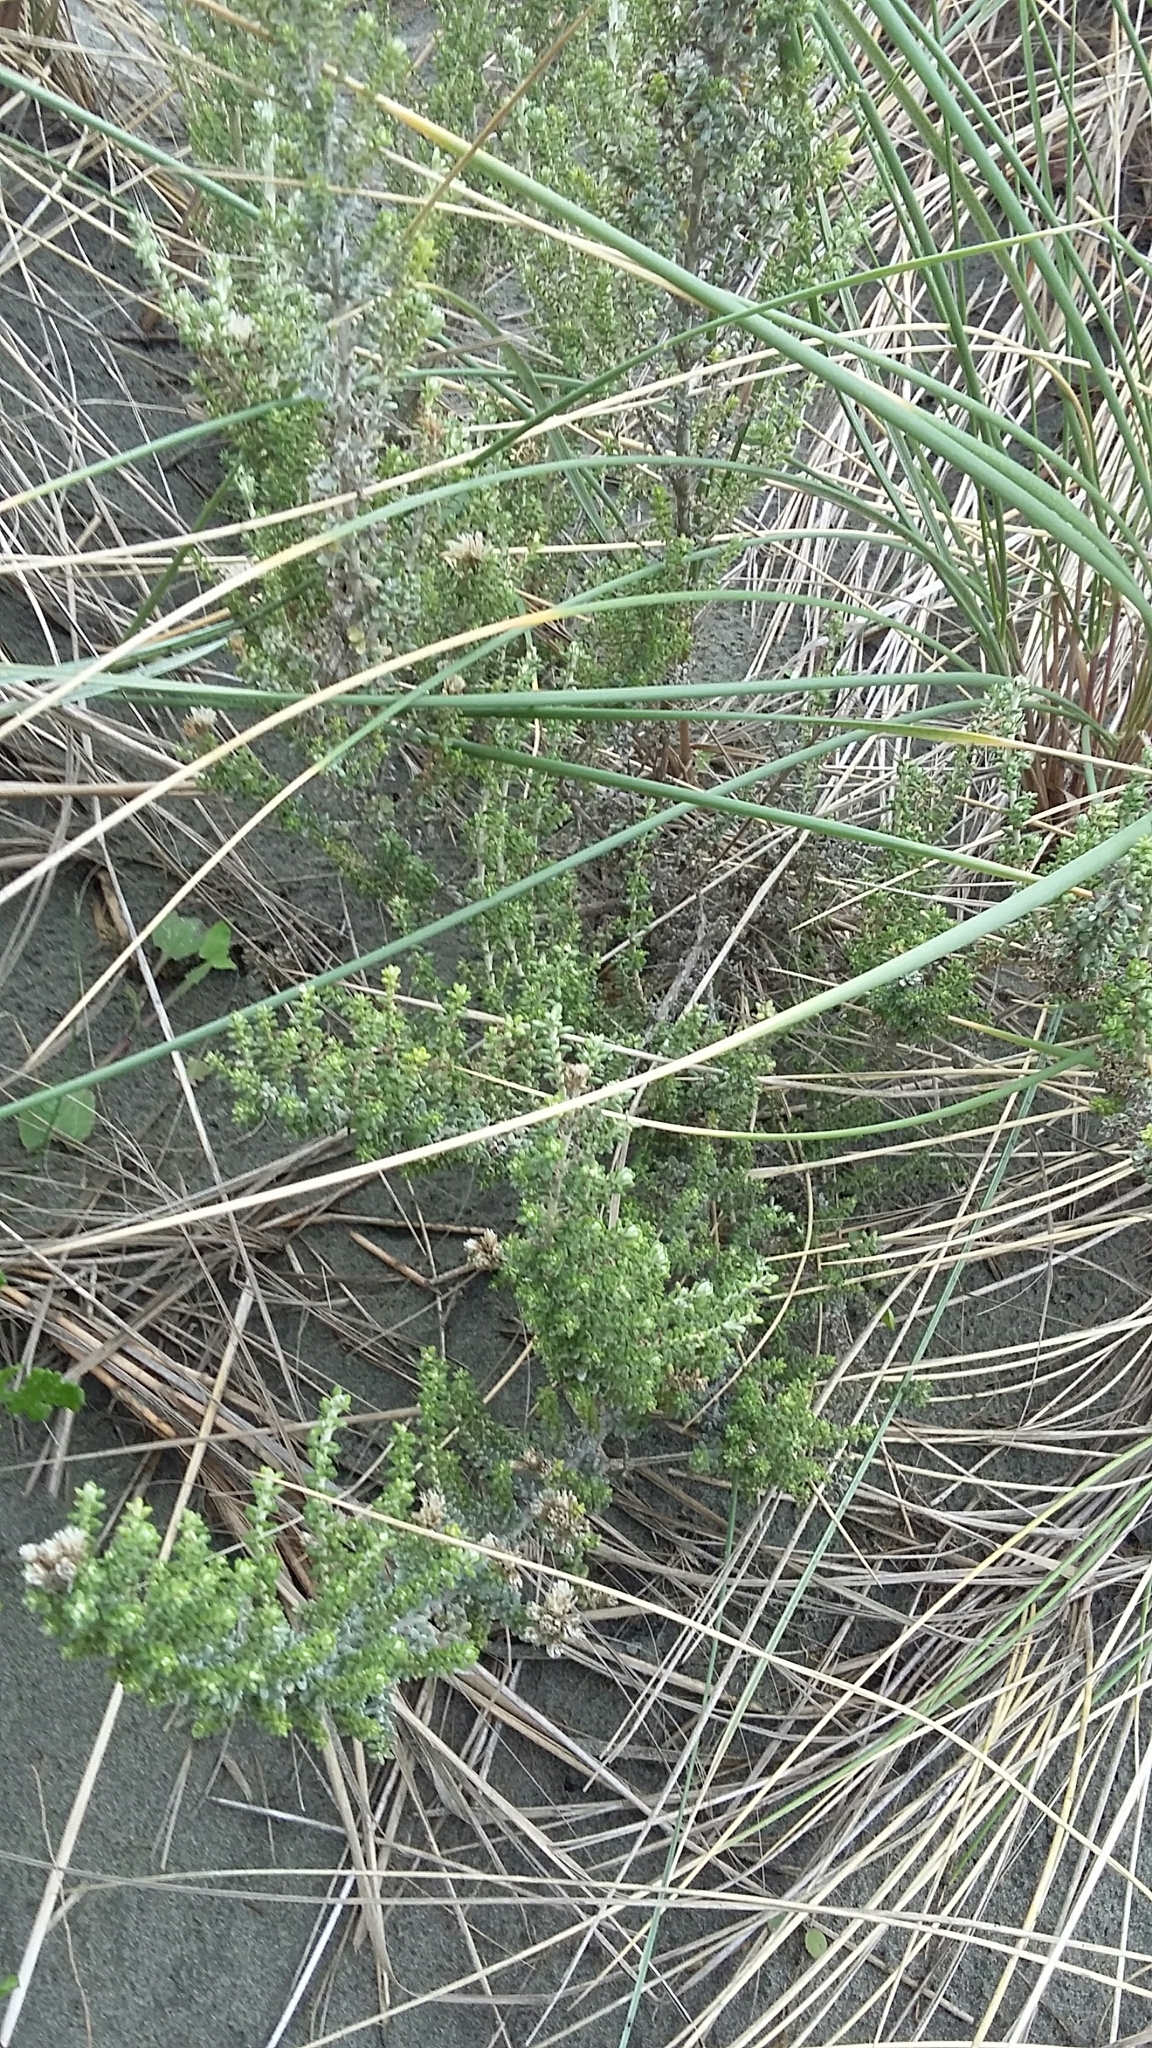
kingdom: Plantae
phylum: Tracheophyta
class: Magnoliopsida
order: Asterales
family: Asteraceae
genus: Ozothamnus
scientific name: Ozothamnus leptophyllus
